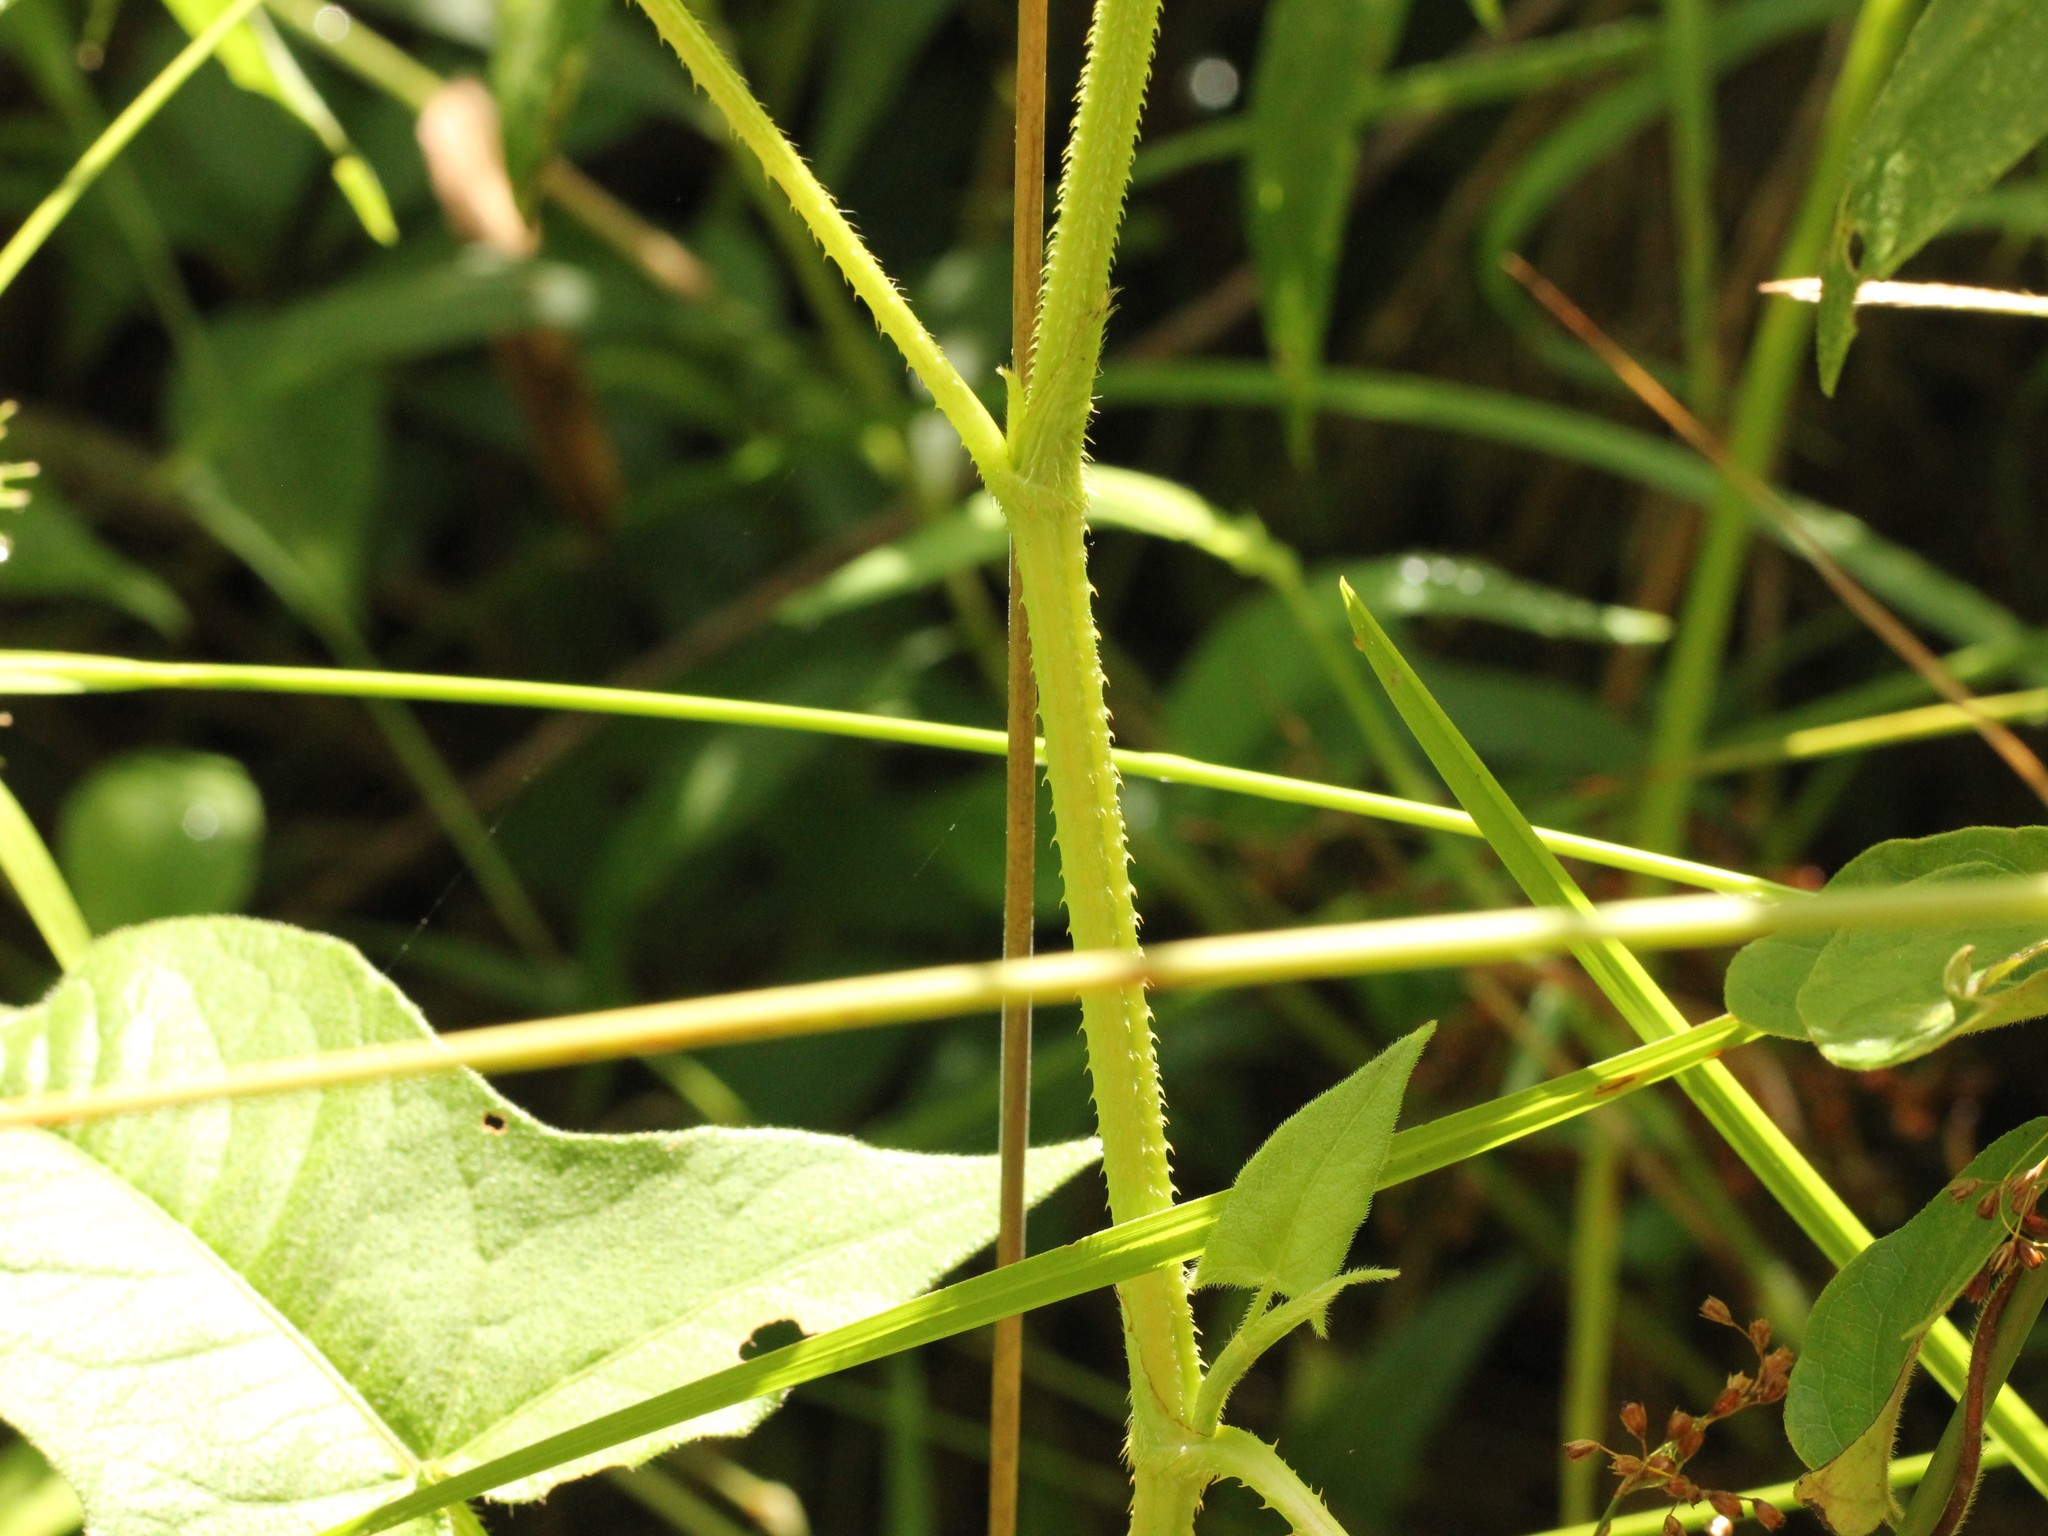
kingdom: Plantae
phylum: Tracheophyta
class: Magnoliopsida
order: Caryophyllales
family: Polygonaceae
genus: Persicaria
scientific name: Persicaria arifolia
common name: Halberd-leaved tear-thumb
